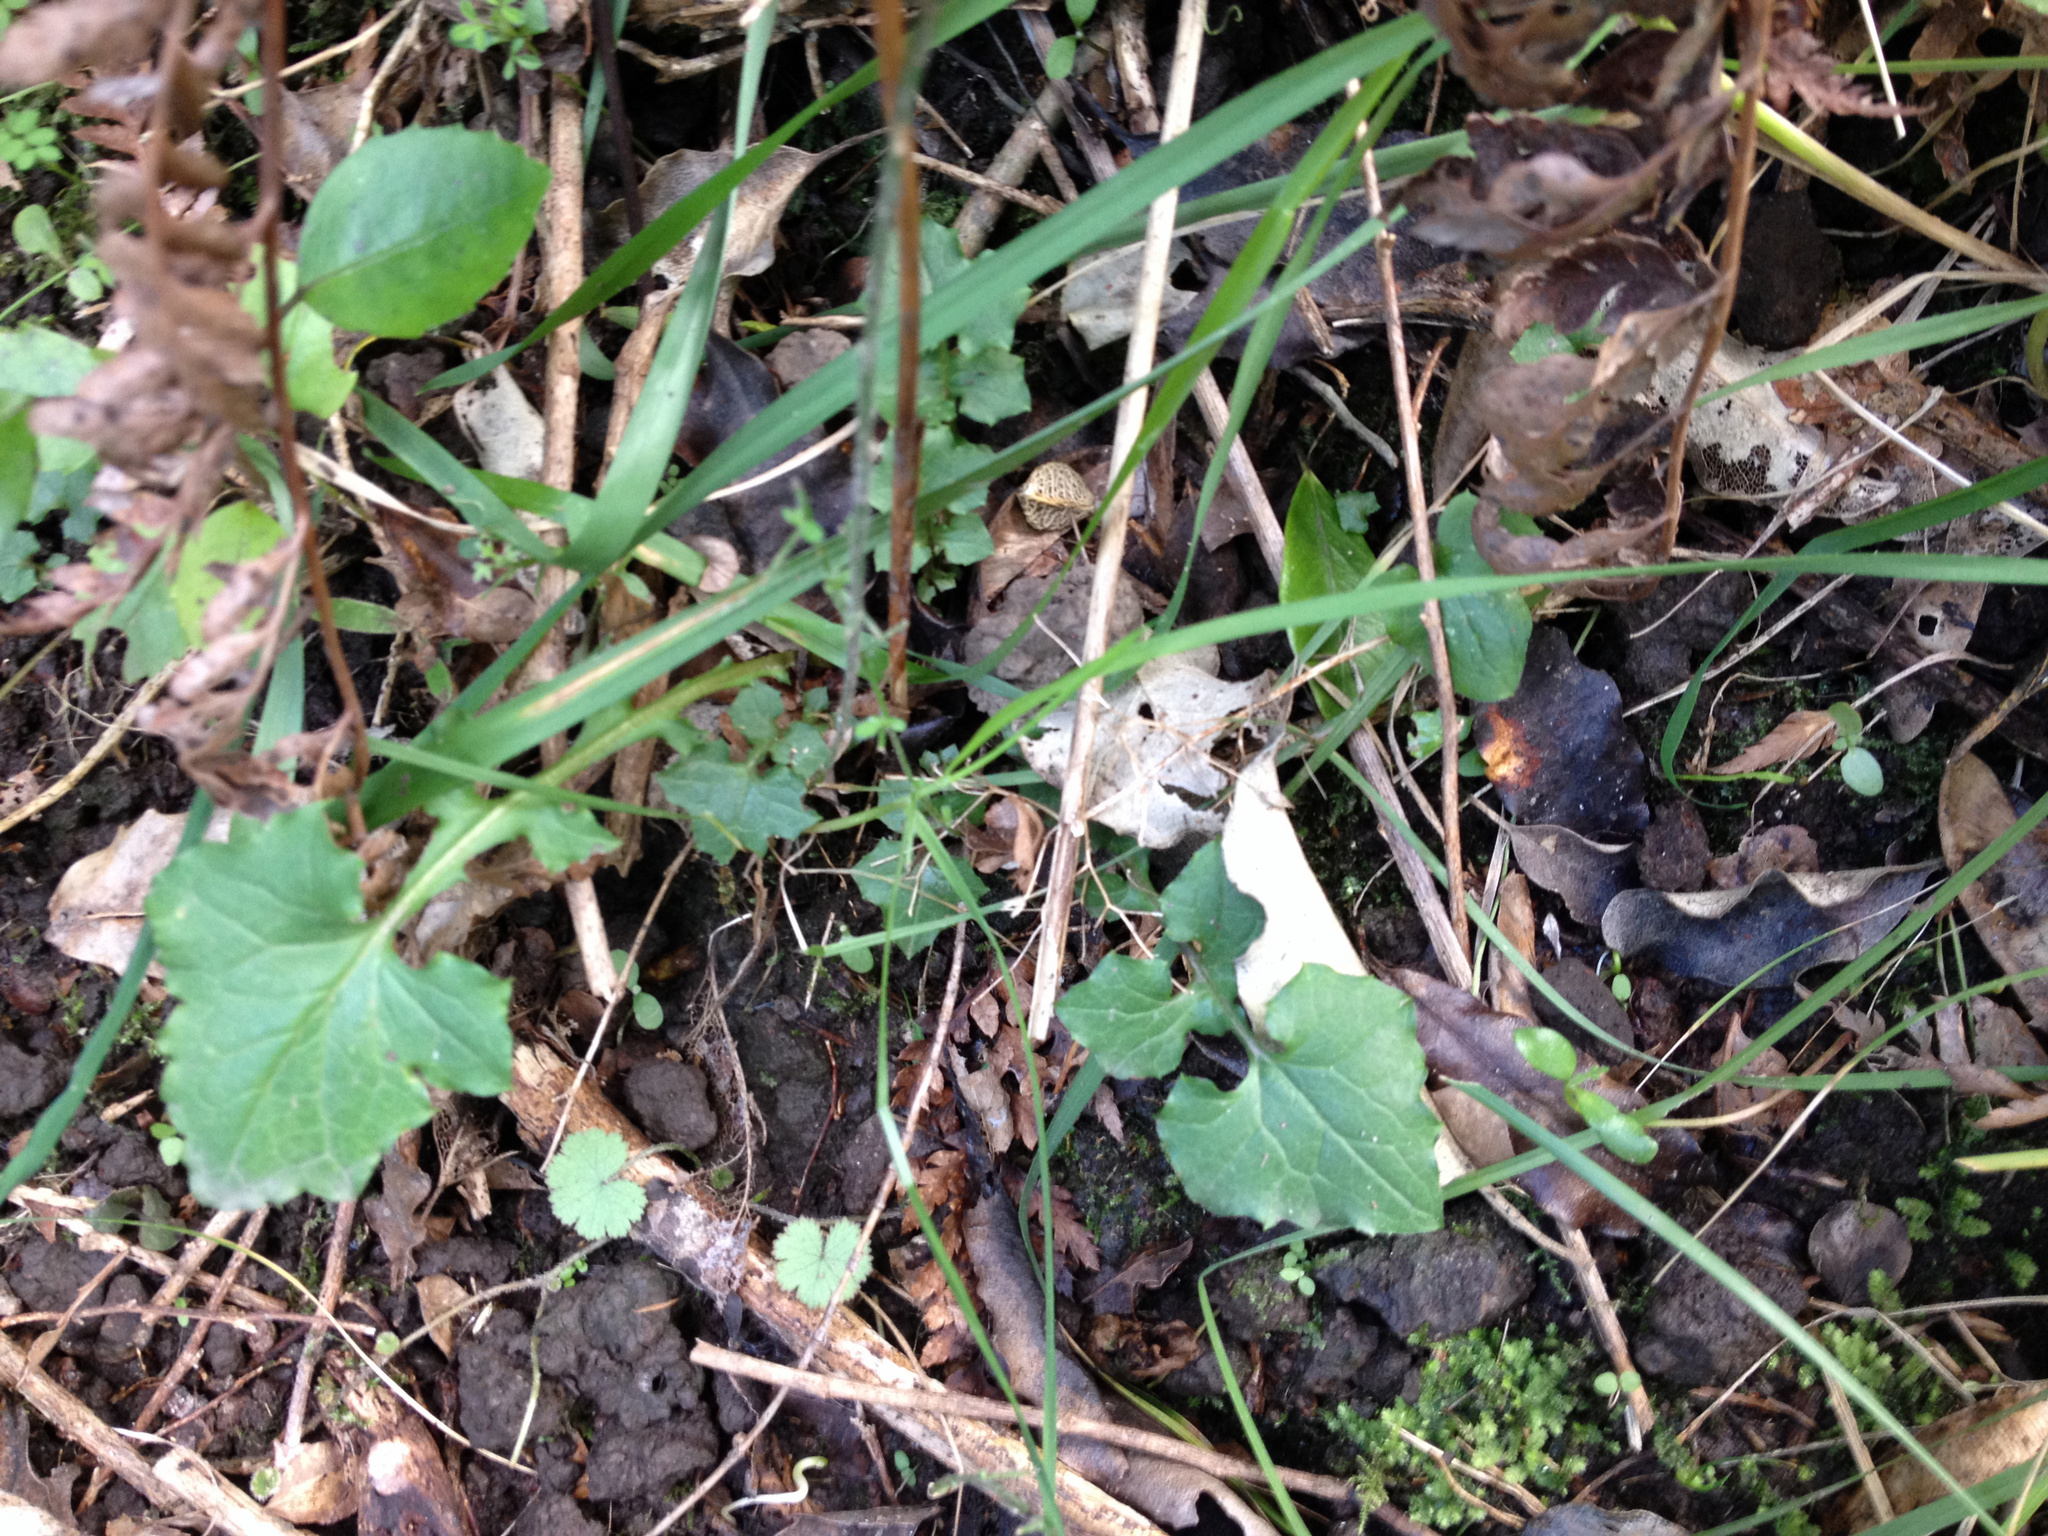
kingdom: Plantae
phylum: Tracheophyta
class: Magnoliopsida
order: Asterales
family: Asteraceae
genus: Mycelis
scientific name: Mycelis muralis
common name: Wall lettuce
